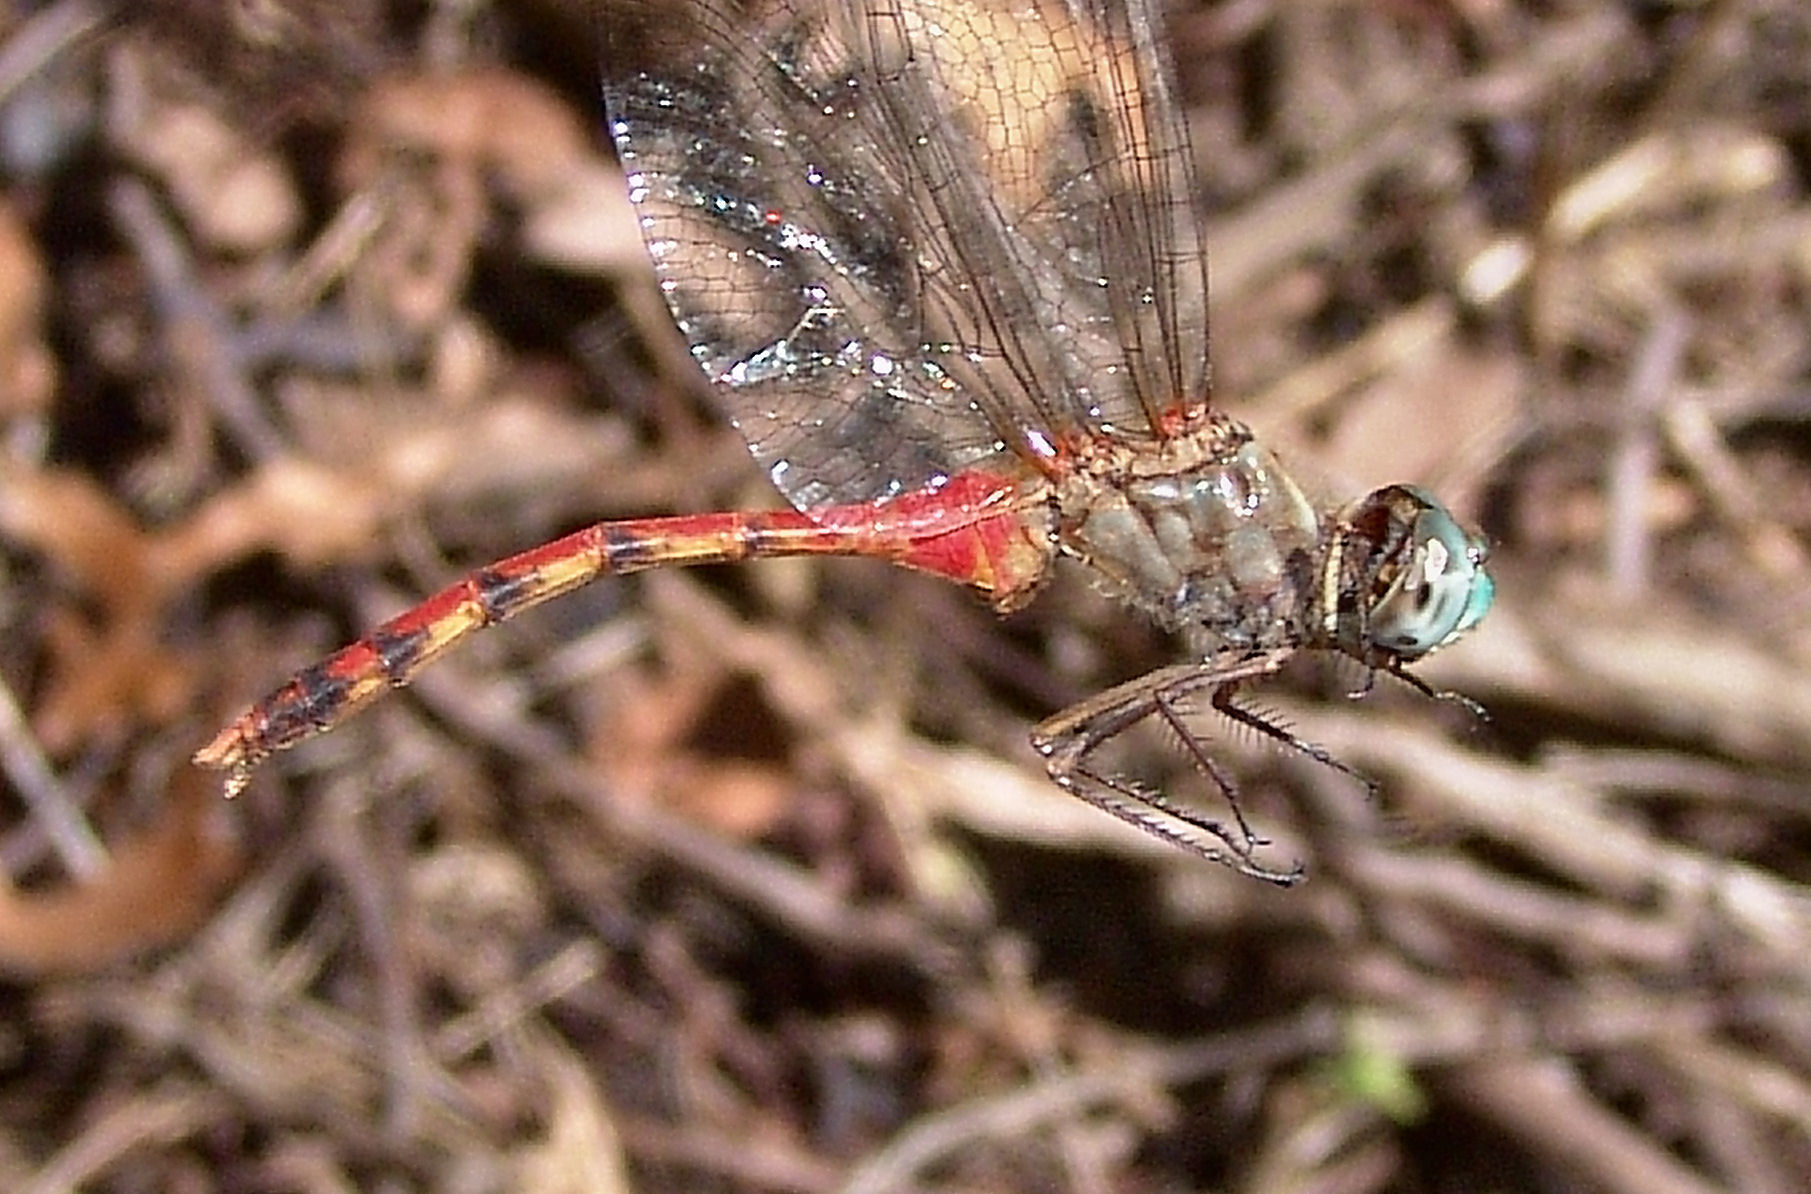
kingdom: Animalia
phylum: Arthropoda
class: Insecta
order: Odonata
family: Libellulidae
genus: Sympetrum
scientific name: Sympetrum ambiguum
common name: Blue-faced meadowhawk
